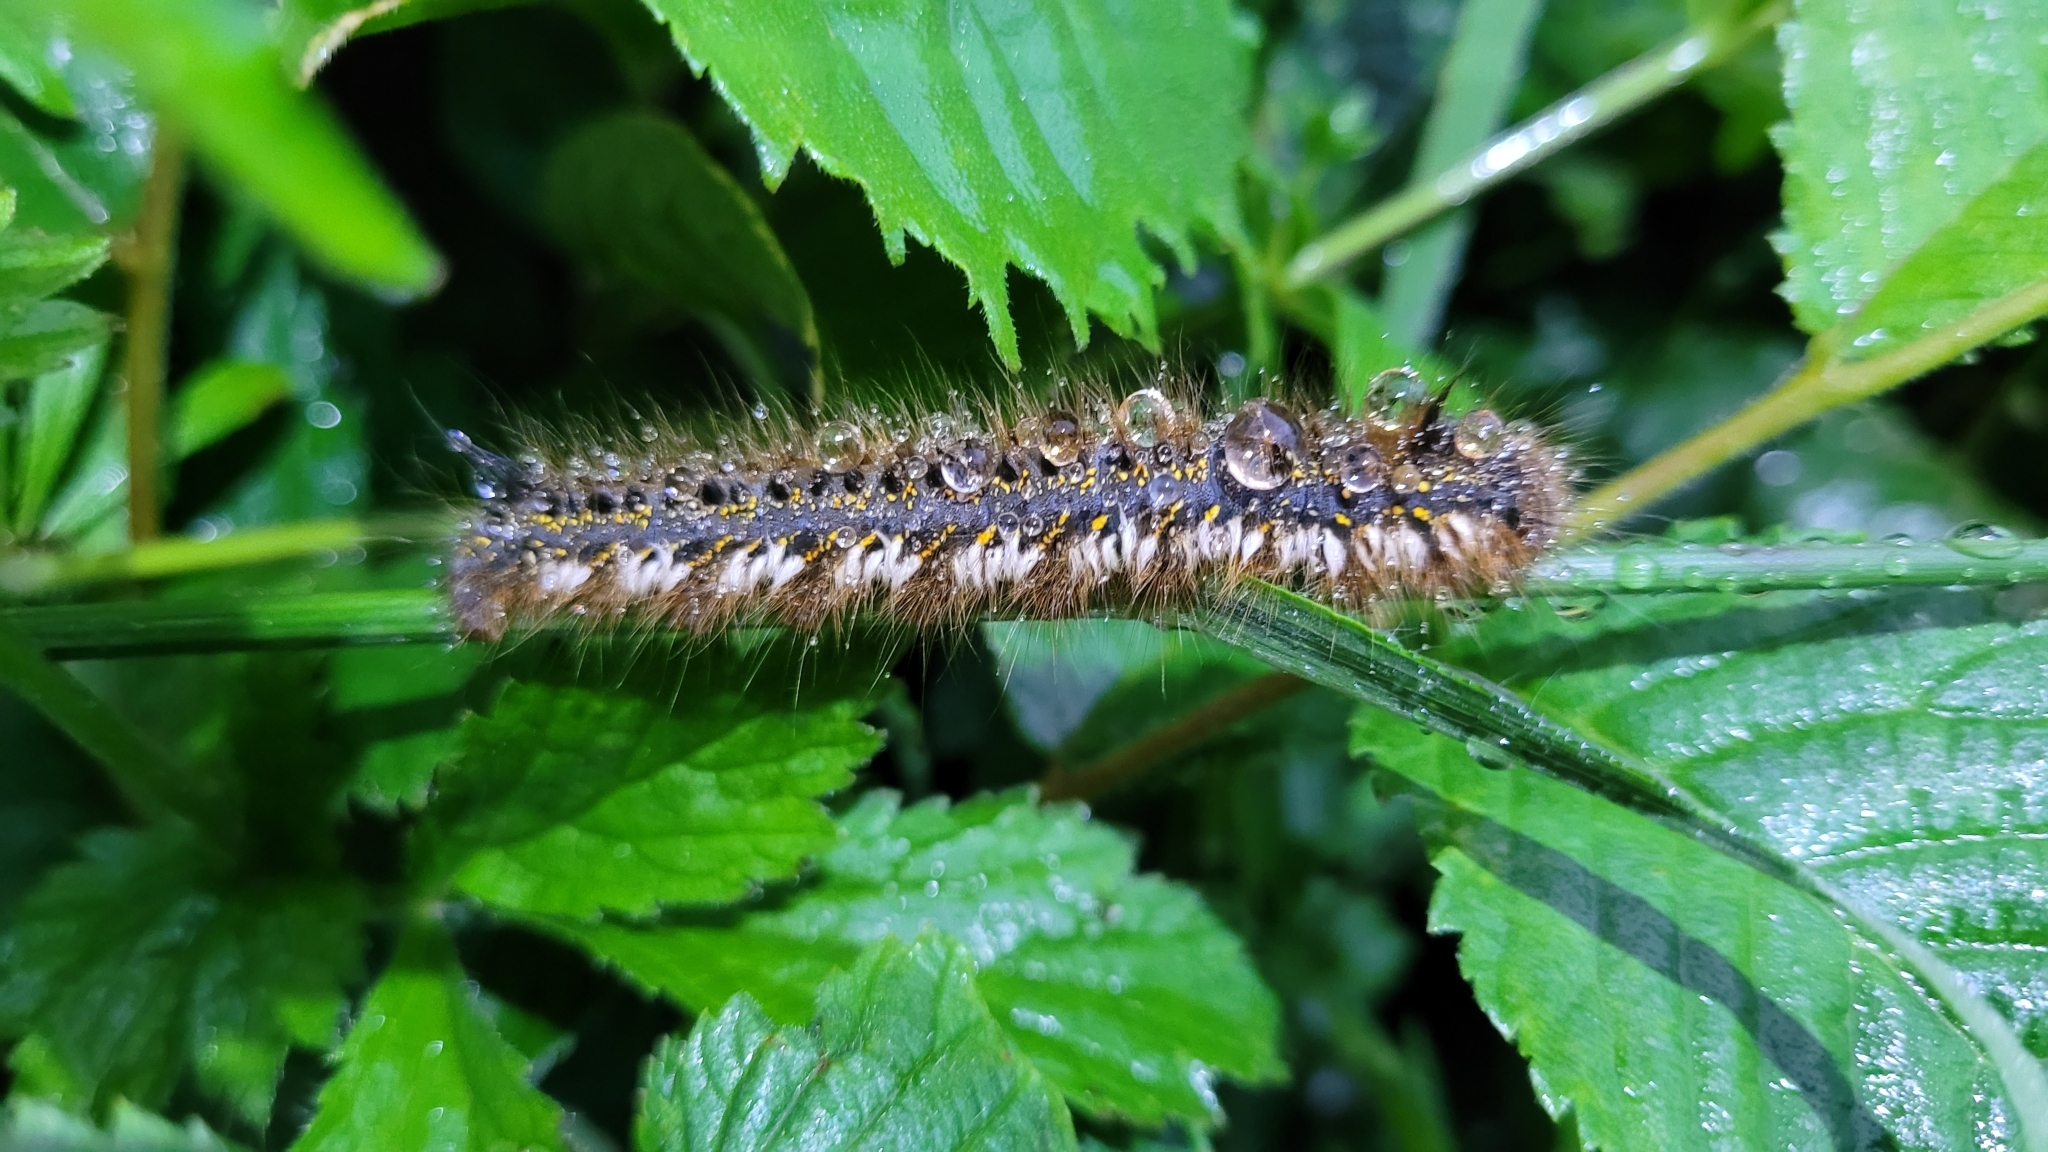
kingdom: Animalia
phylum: Arthropoda
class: Insecta
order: Lepidoptera
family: Lasiocampidae
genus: Euthrix
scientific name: Euthrix potatoria
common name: Drinker
